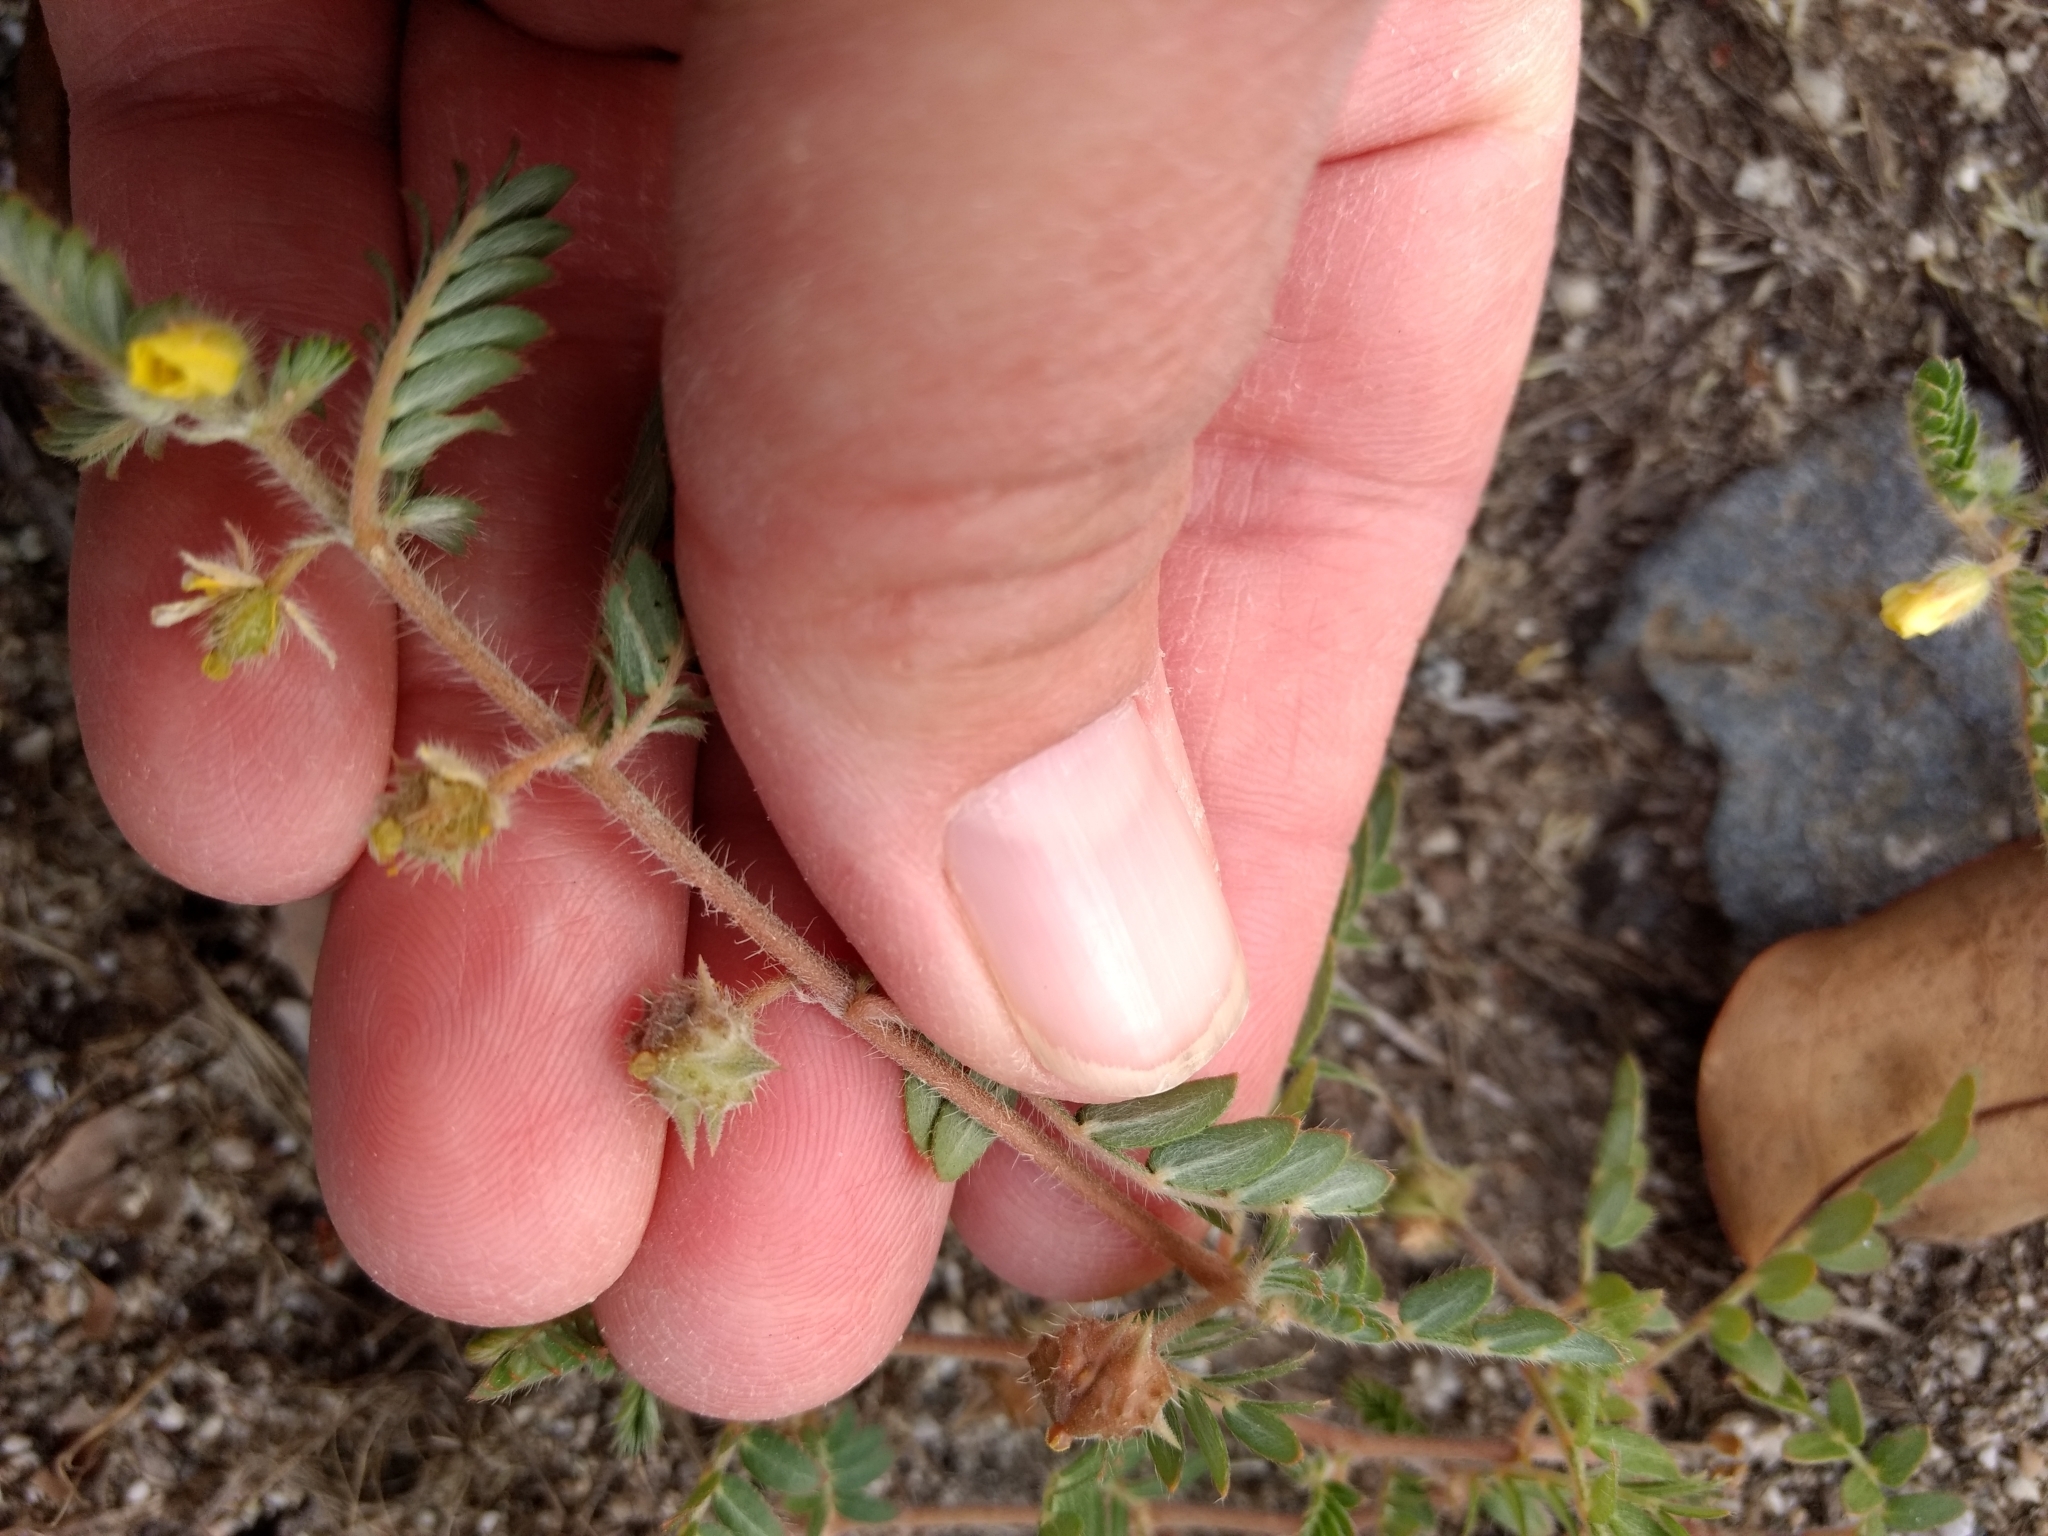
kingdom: Plantae
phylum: Tracheophyta
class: Magnoliopsida
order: Zygophyllales
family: Zygophyllaceae
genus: Tribulus
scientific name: Tribulus terrestris
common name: Puncturevine
